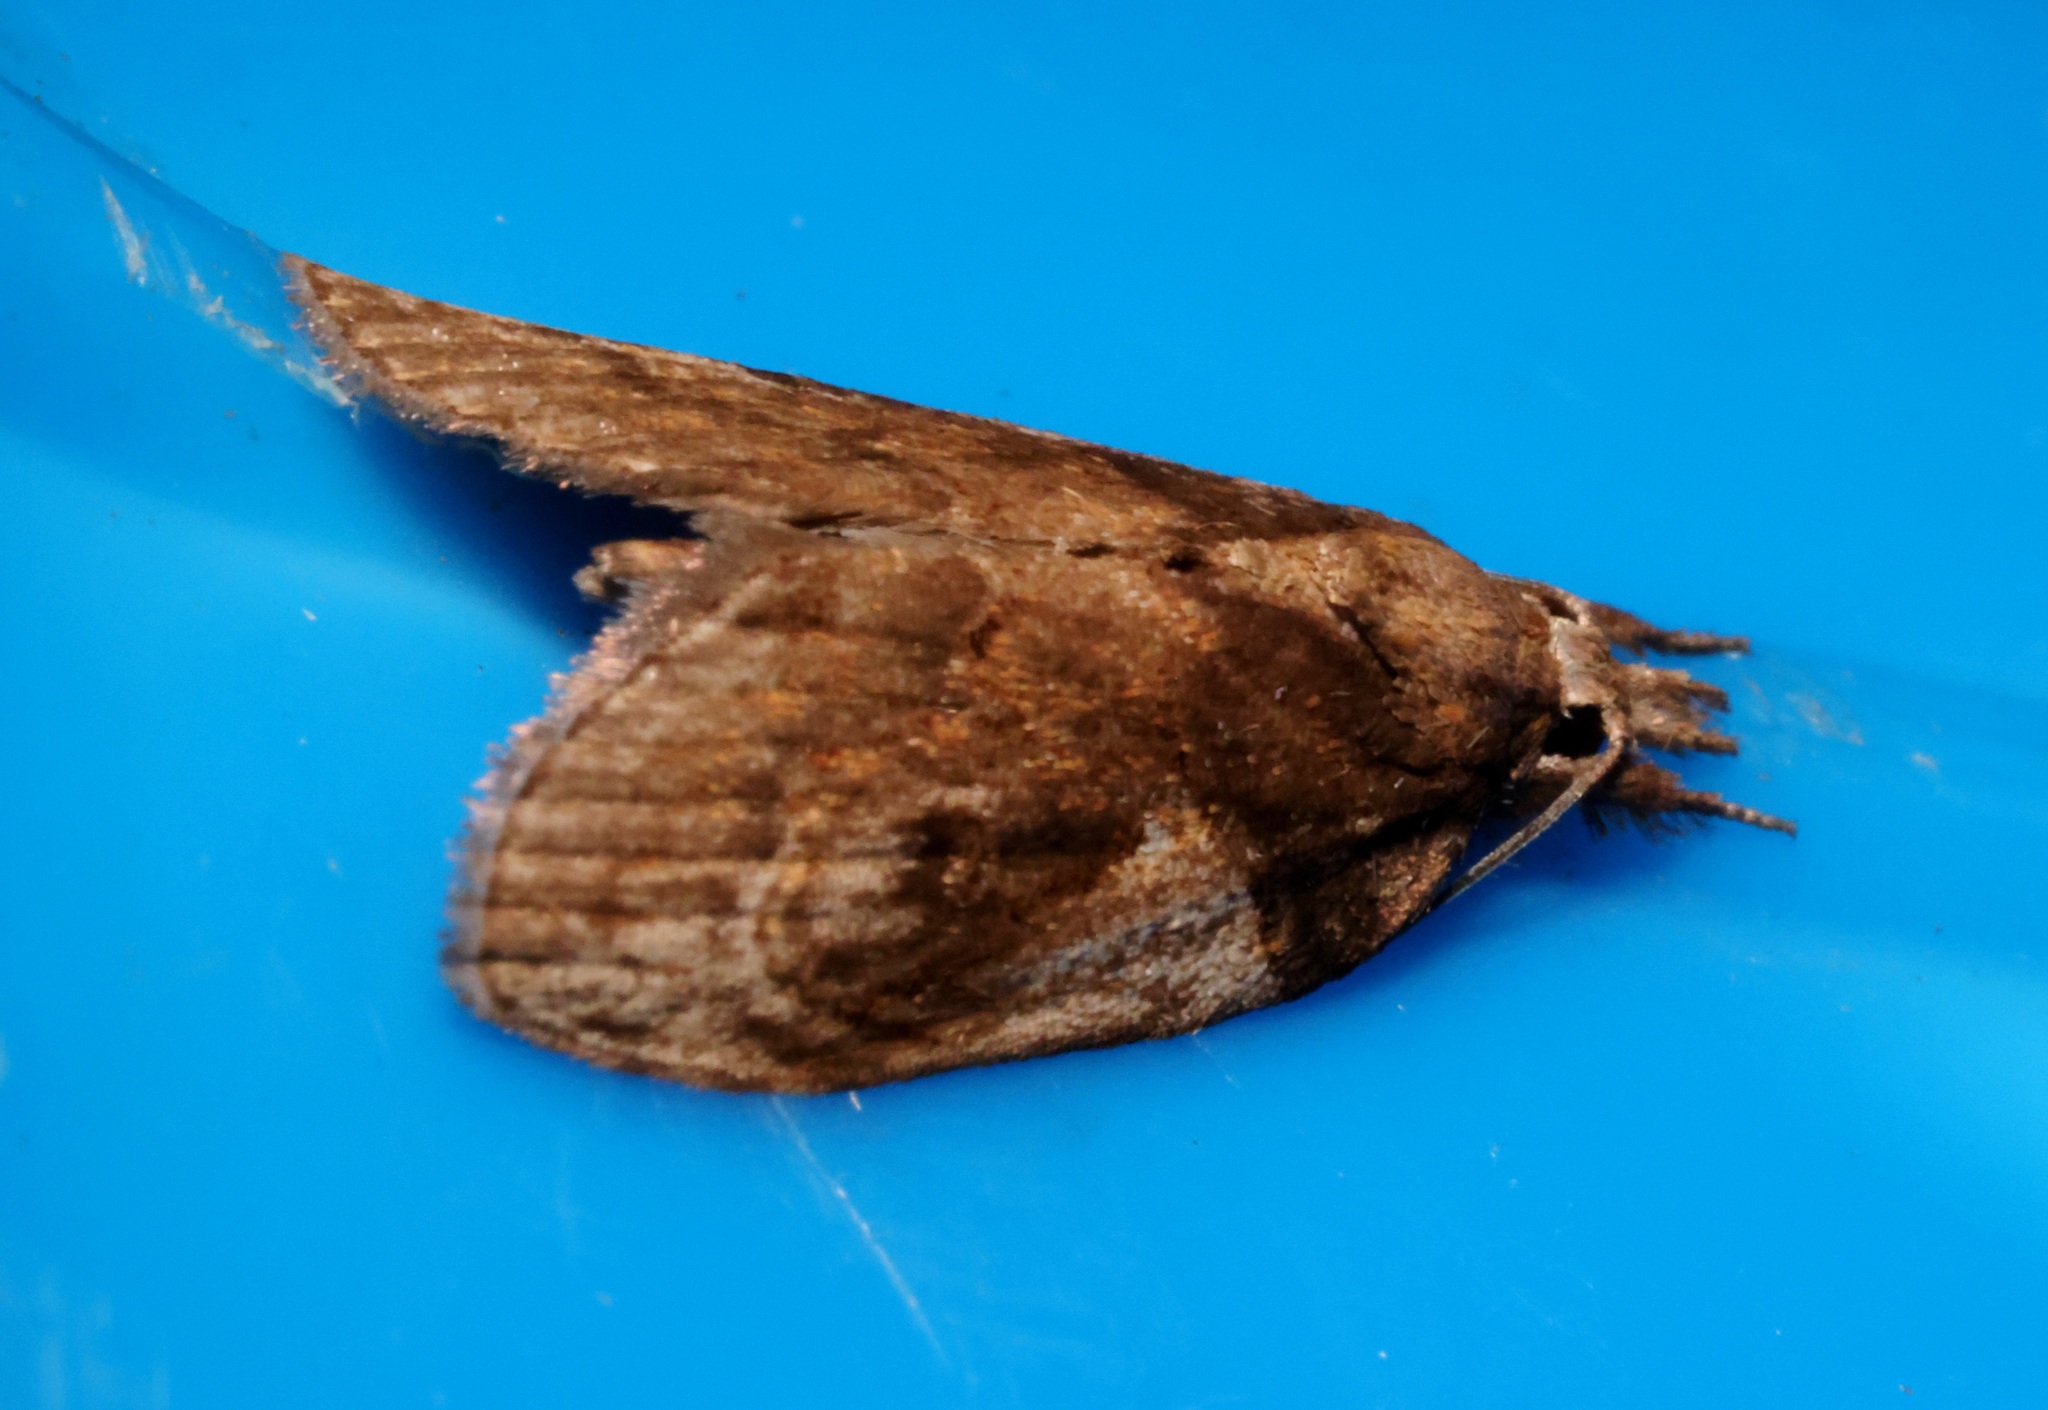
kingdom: Animalia
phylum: Arthropoda
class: Insecta
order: Lepidoptera
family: Nolidae
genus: Selepa
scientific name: Selepa molybdea
